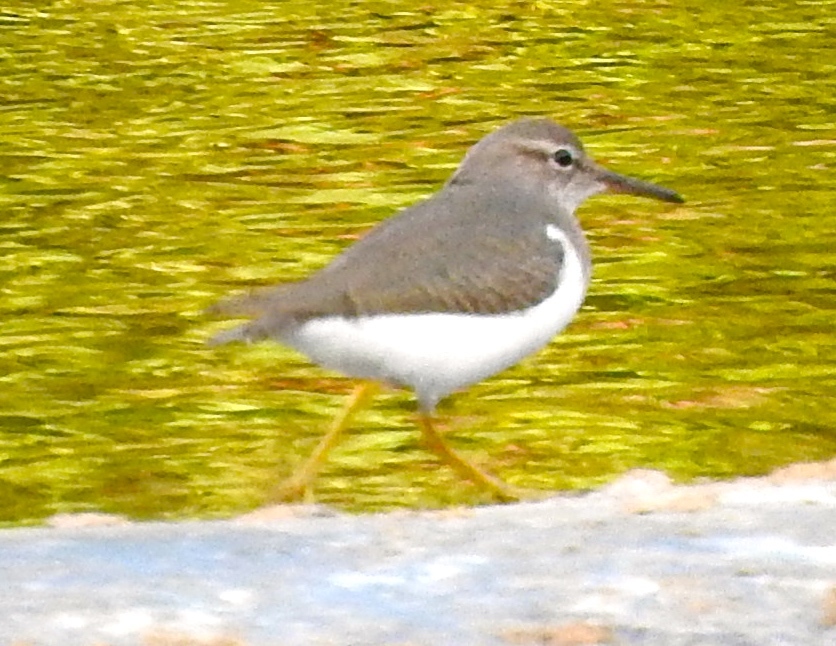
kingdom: Animalia
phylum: Chordata
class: Aves
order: Charadriiformes
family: Scolopacidae
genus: Actitis
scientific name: Actitis macularius
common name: Spotted sandpiper
